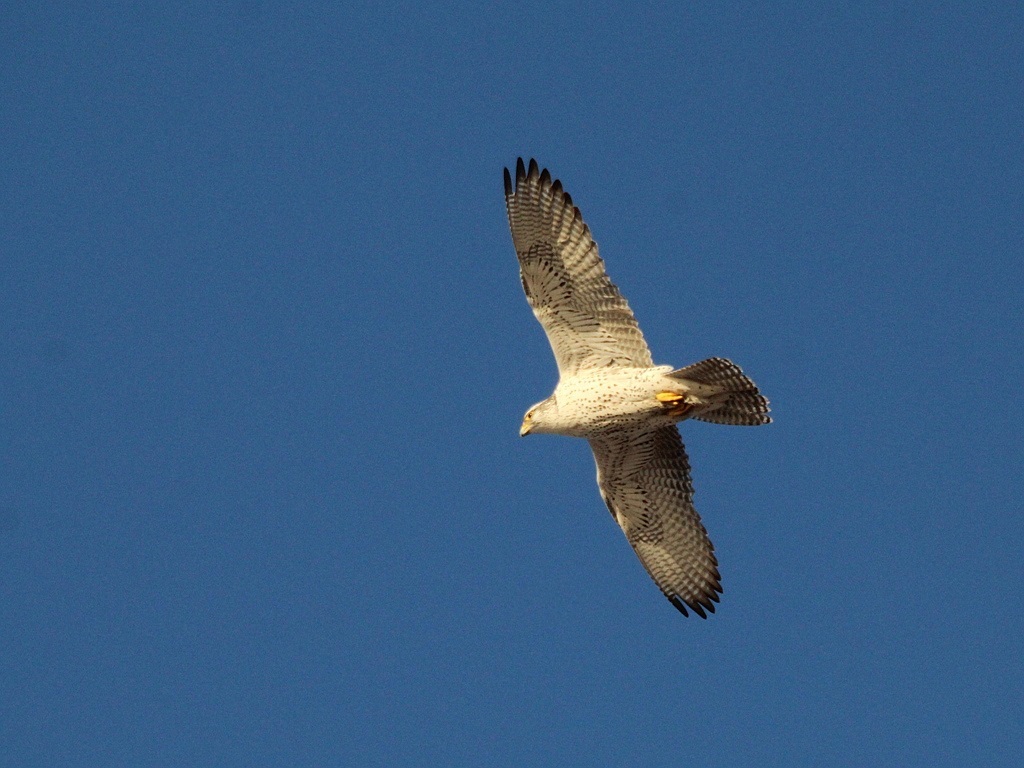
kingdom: Animalia
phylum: Chordata
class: Aves
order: Falconiformes
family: Falconidae
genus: Falco
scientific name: Falco rusticolus
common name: Gyrfalcon
